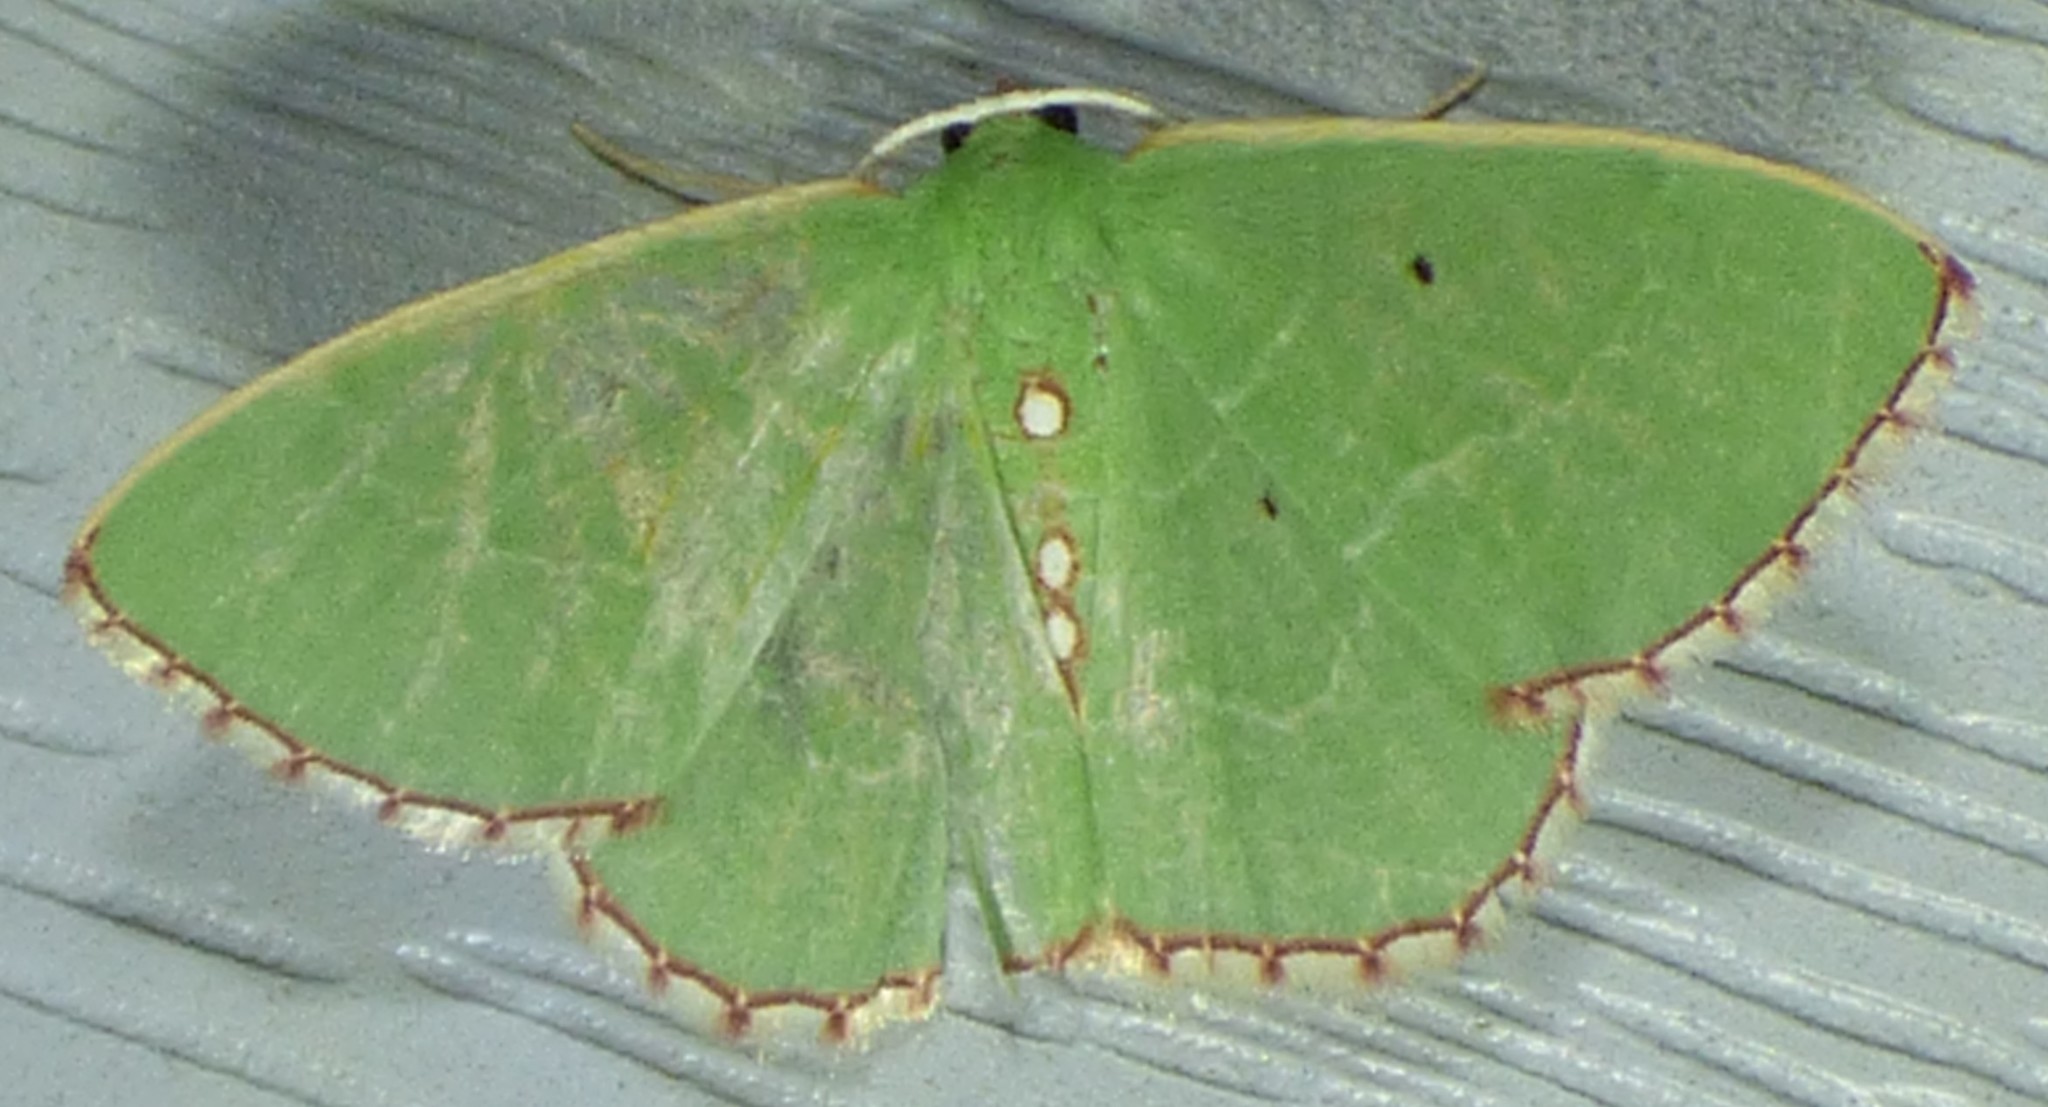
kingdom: Animalia
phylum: Arthropoda
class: Insecta
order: Lepidoptera
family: Geometridae
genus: Nemoria
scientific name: Nemoria lixaria
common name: Red-bordered emerald
